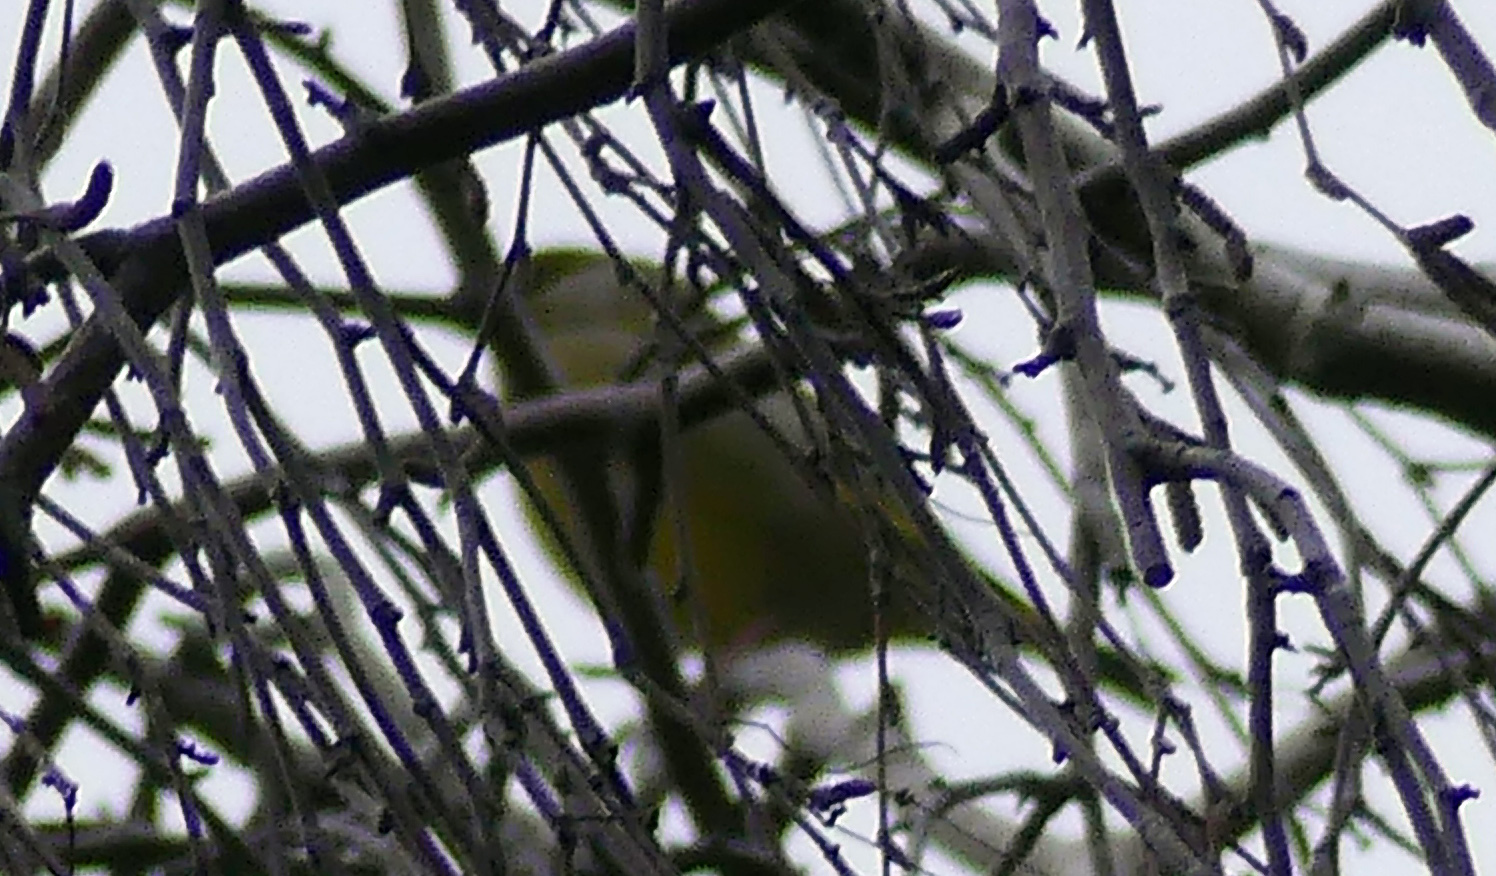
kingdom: Plantae
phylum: Tracheophyta
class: Liliopsida
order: Poales
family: Poaceae
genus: Chloris
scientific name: Chloris chloris
